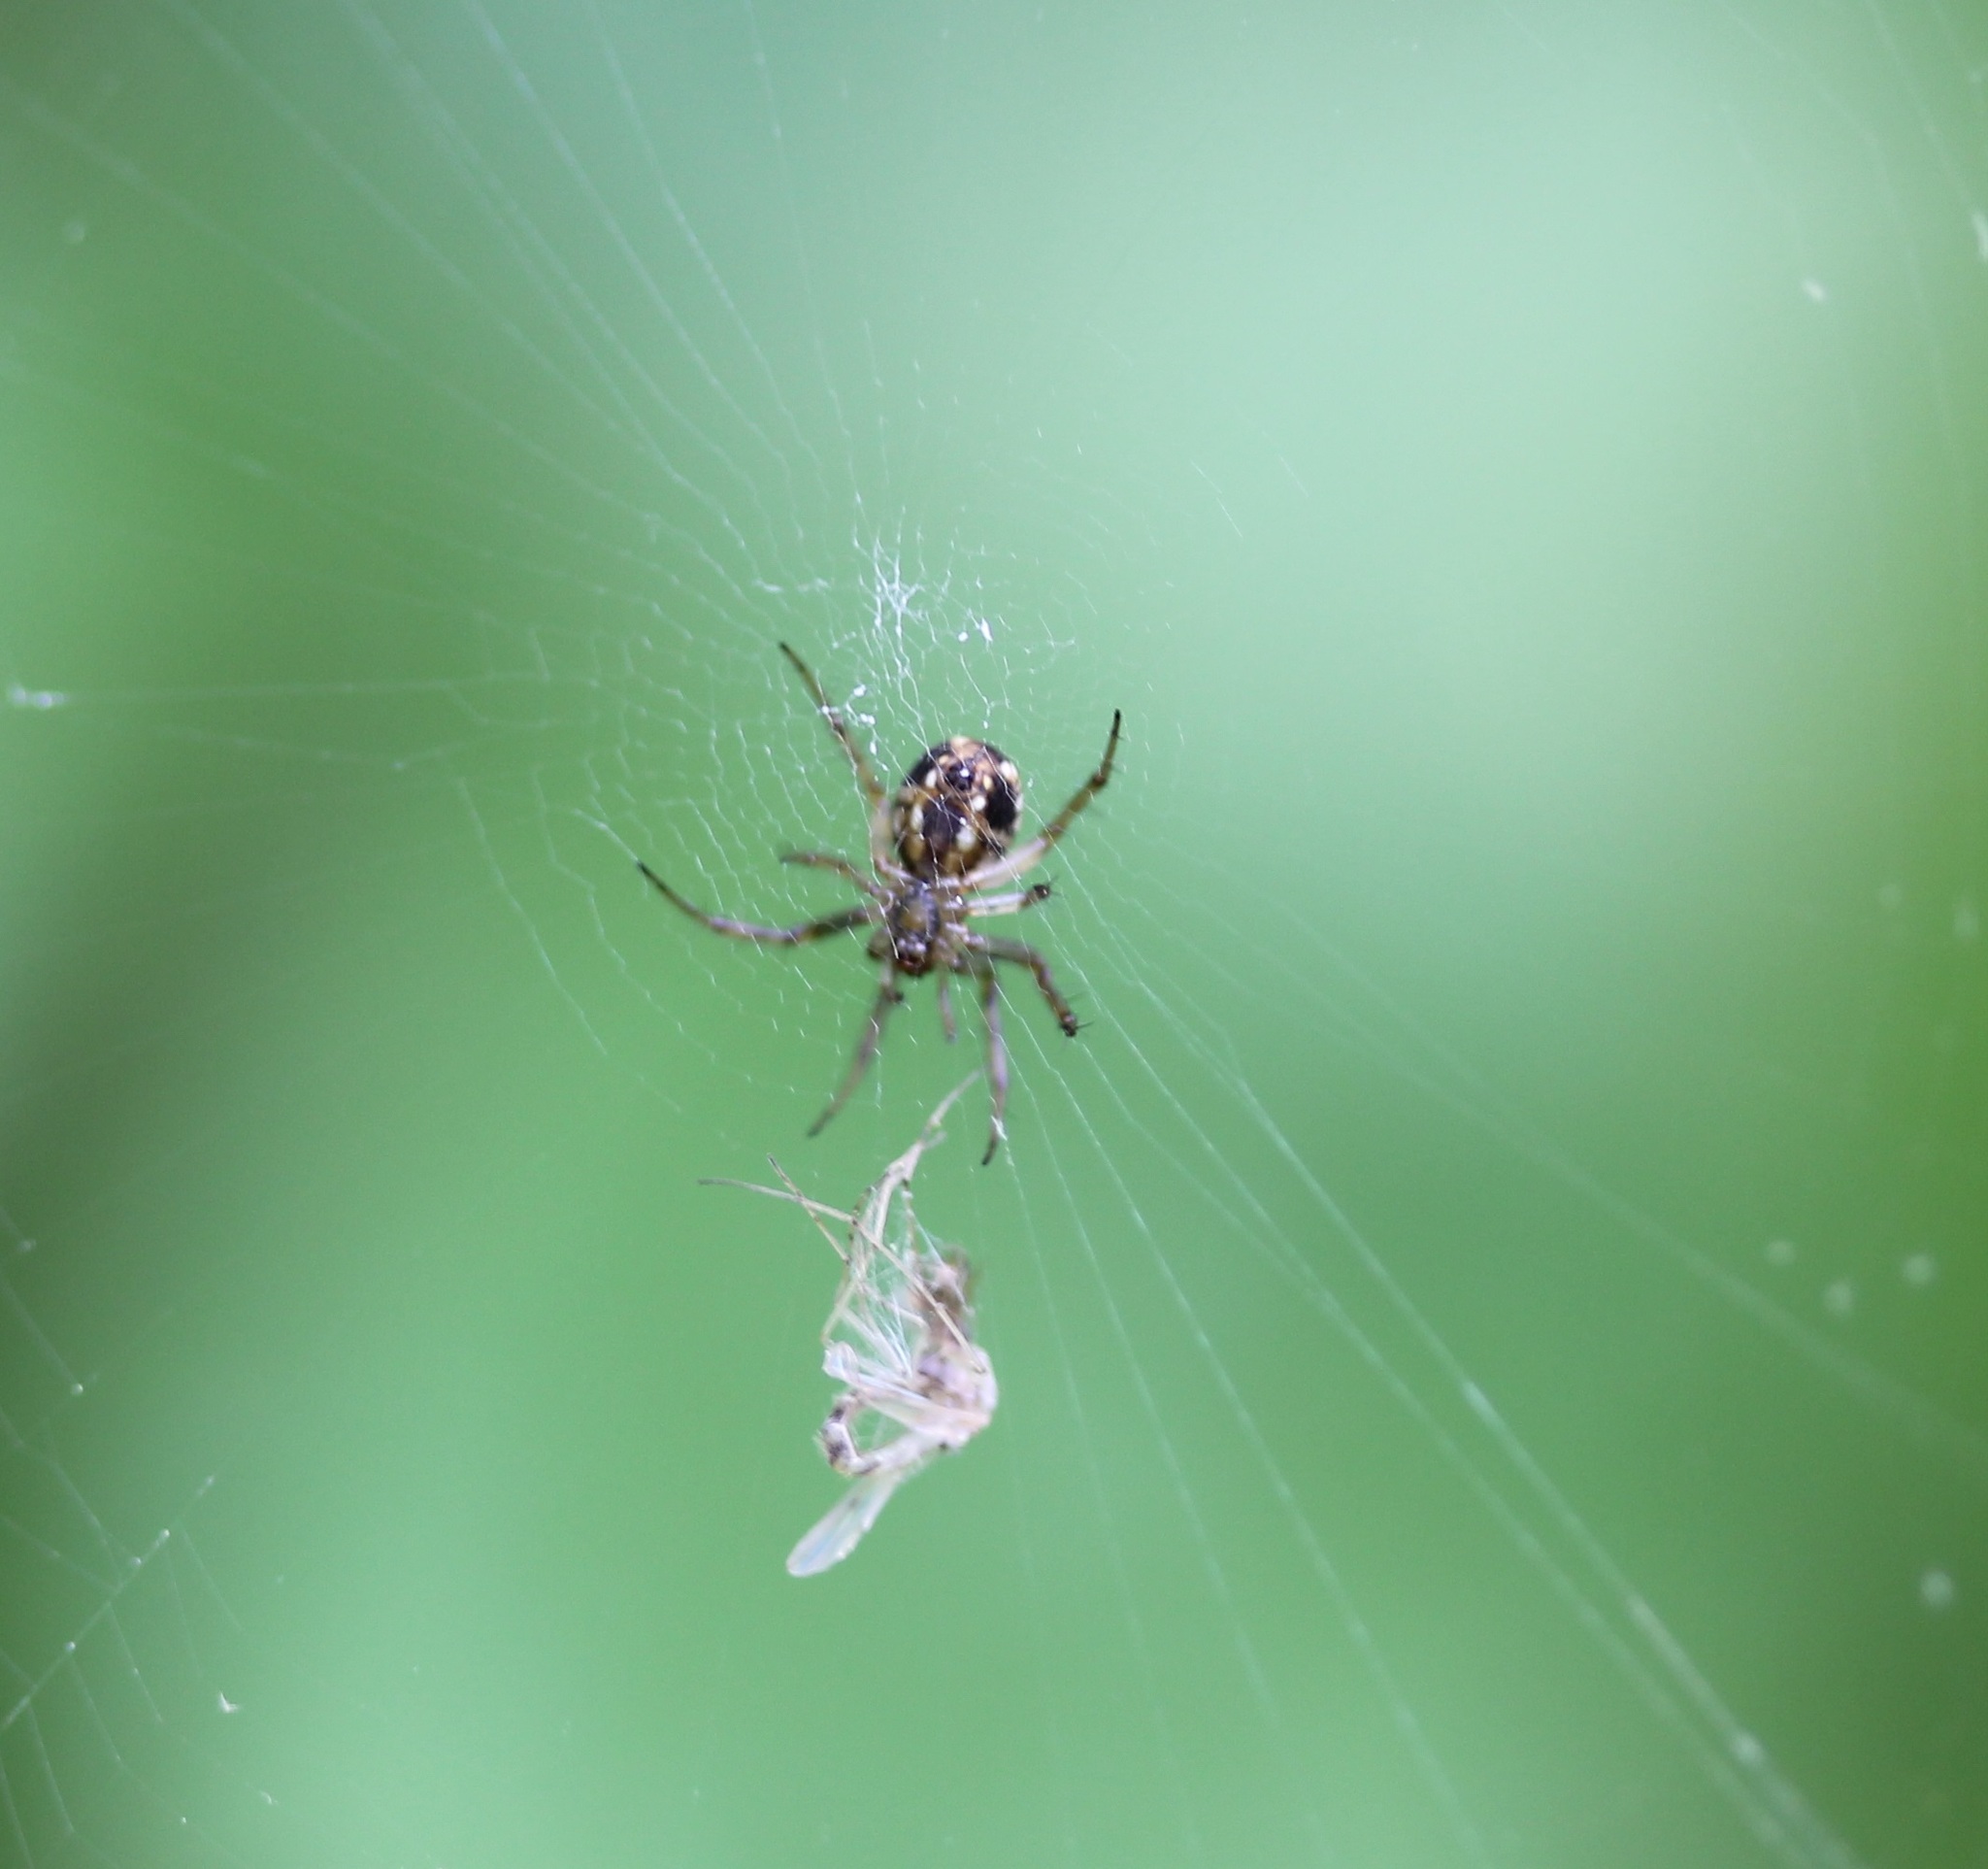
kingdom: Animalia
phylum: Arthropoda
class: Arachnida
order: Araneae
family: Araneidae
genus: Mangora
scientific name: Mangora placida
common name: Tuft-legged orbweaver
